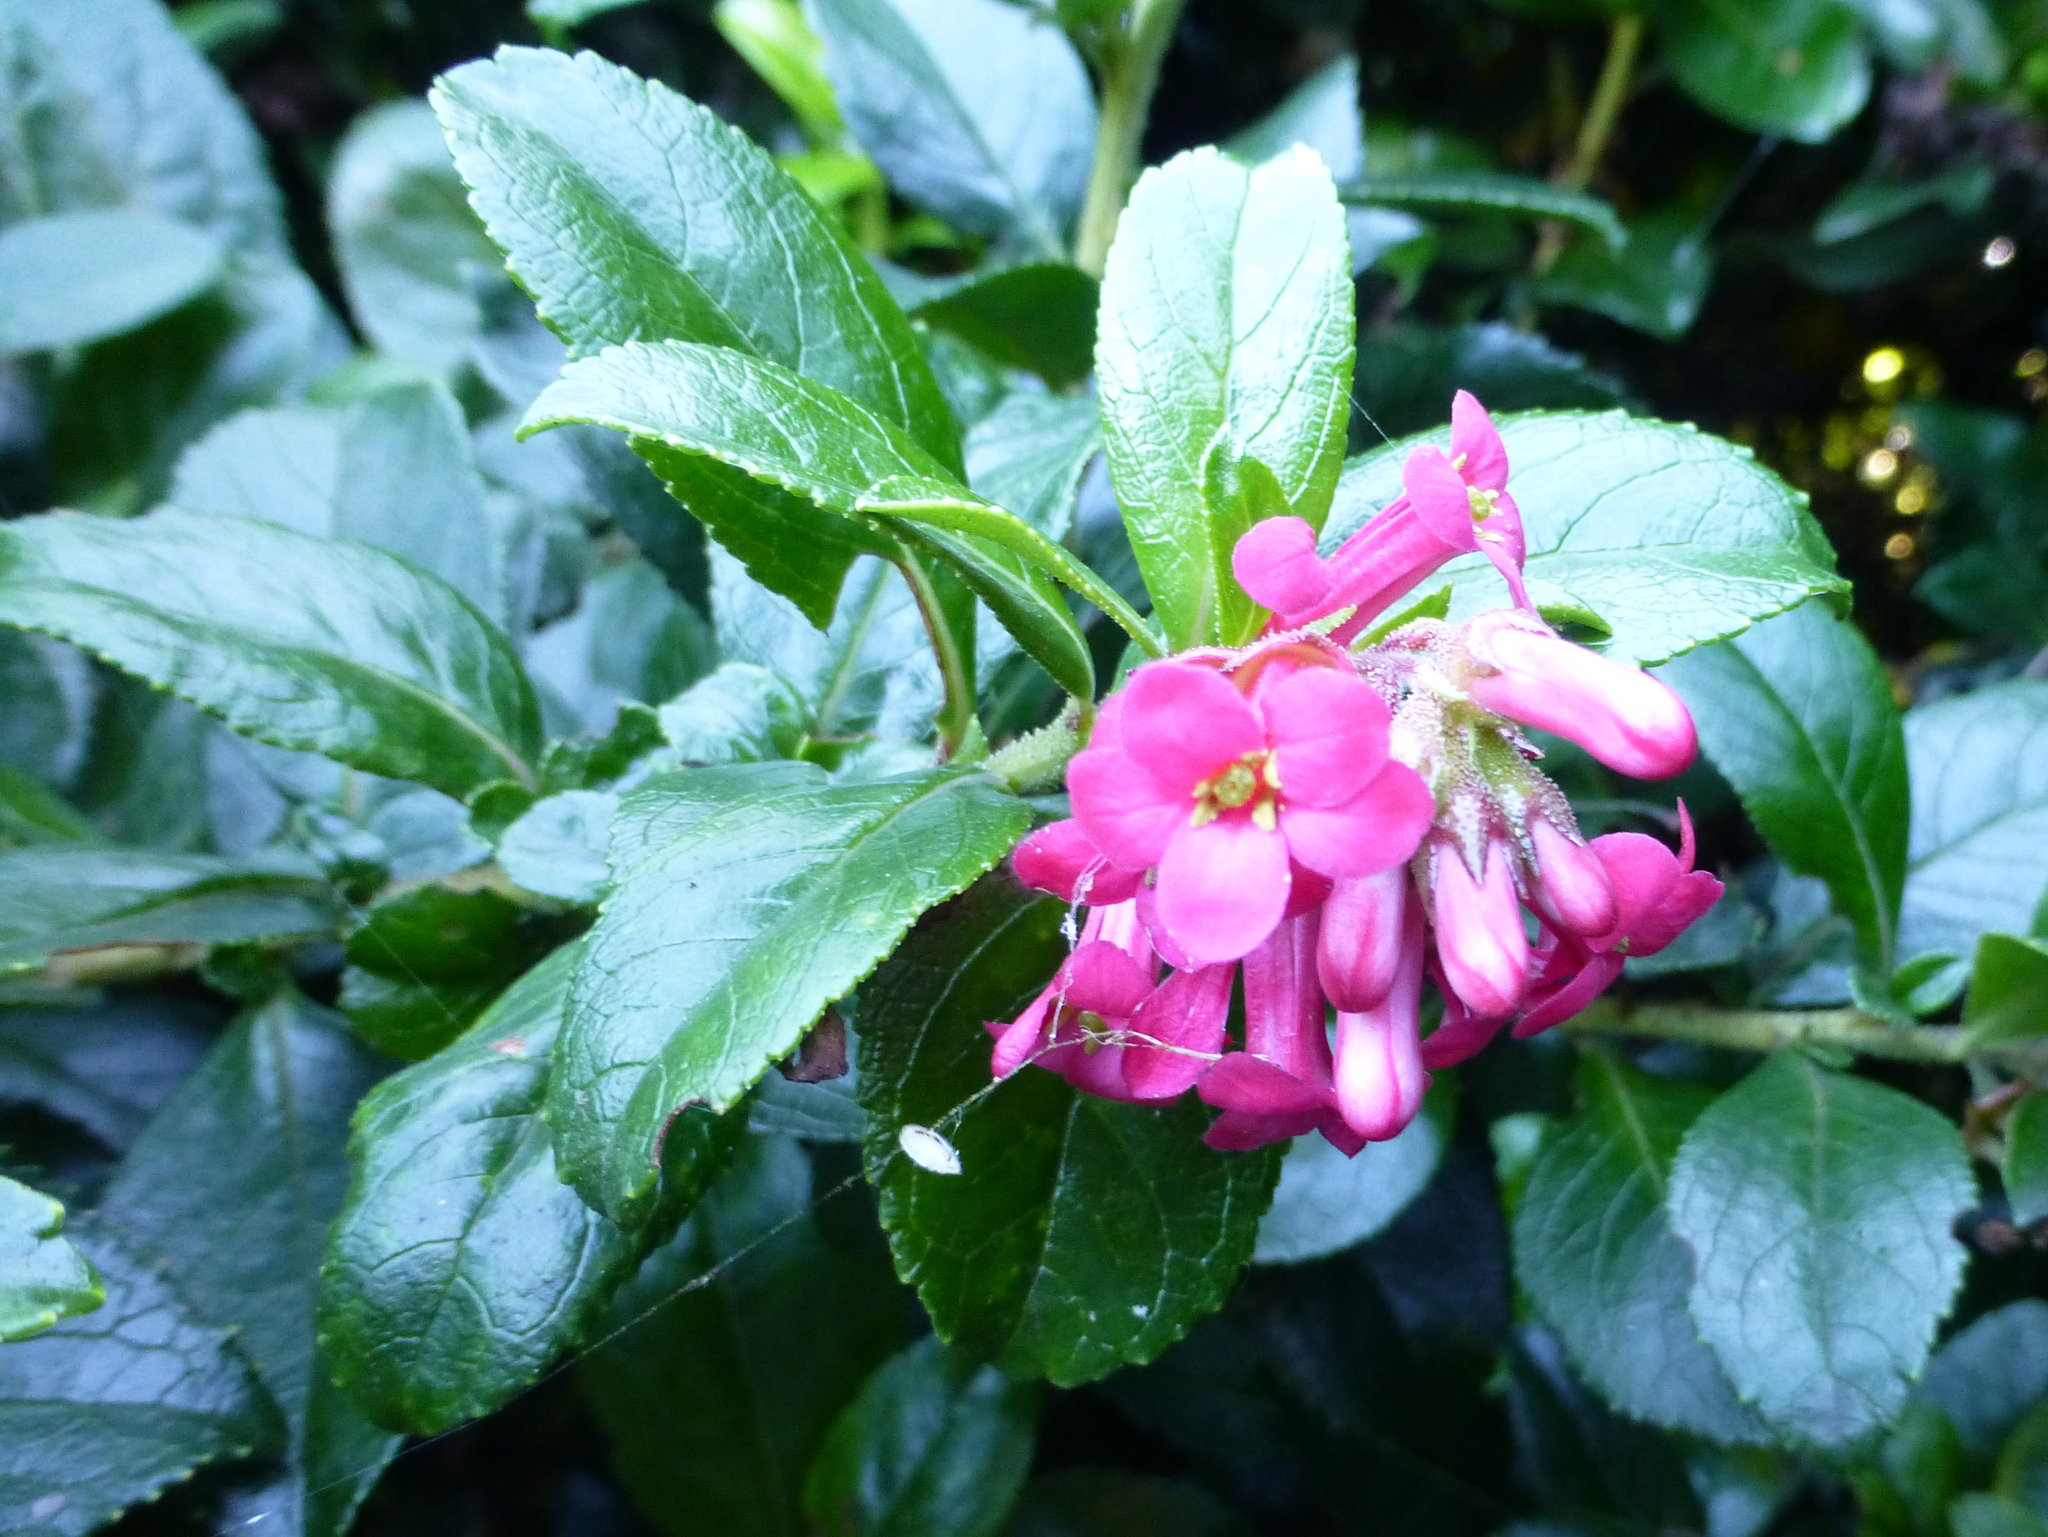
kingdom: Plantae
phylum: Tracheophyta
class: Magnoliopsida
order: Escalloniales
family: Escalloniaceae
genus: Escallonia
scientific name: Escallonia rubra
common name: Redclaws
